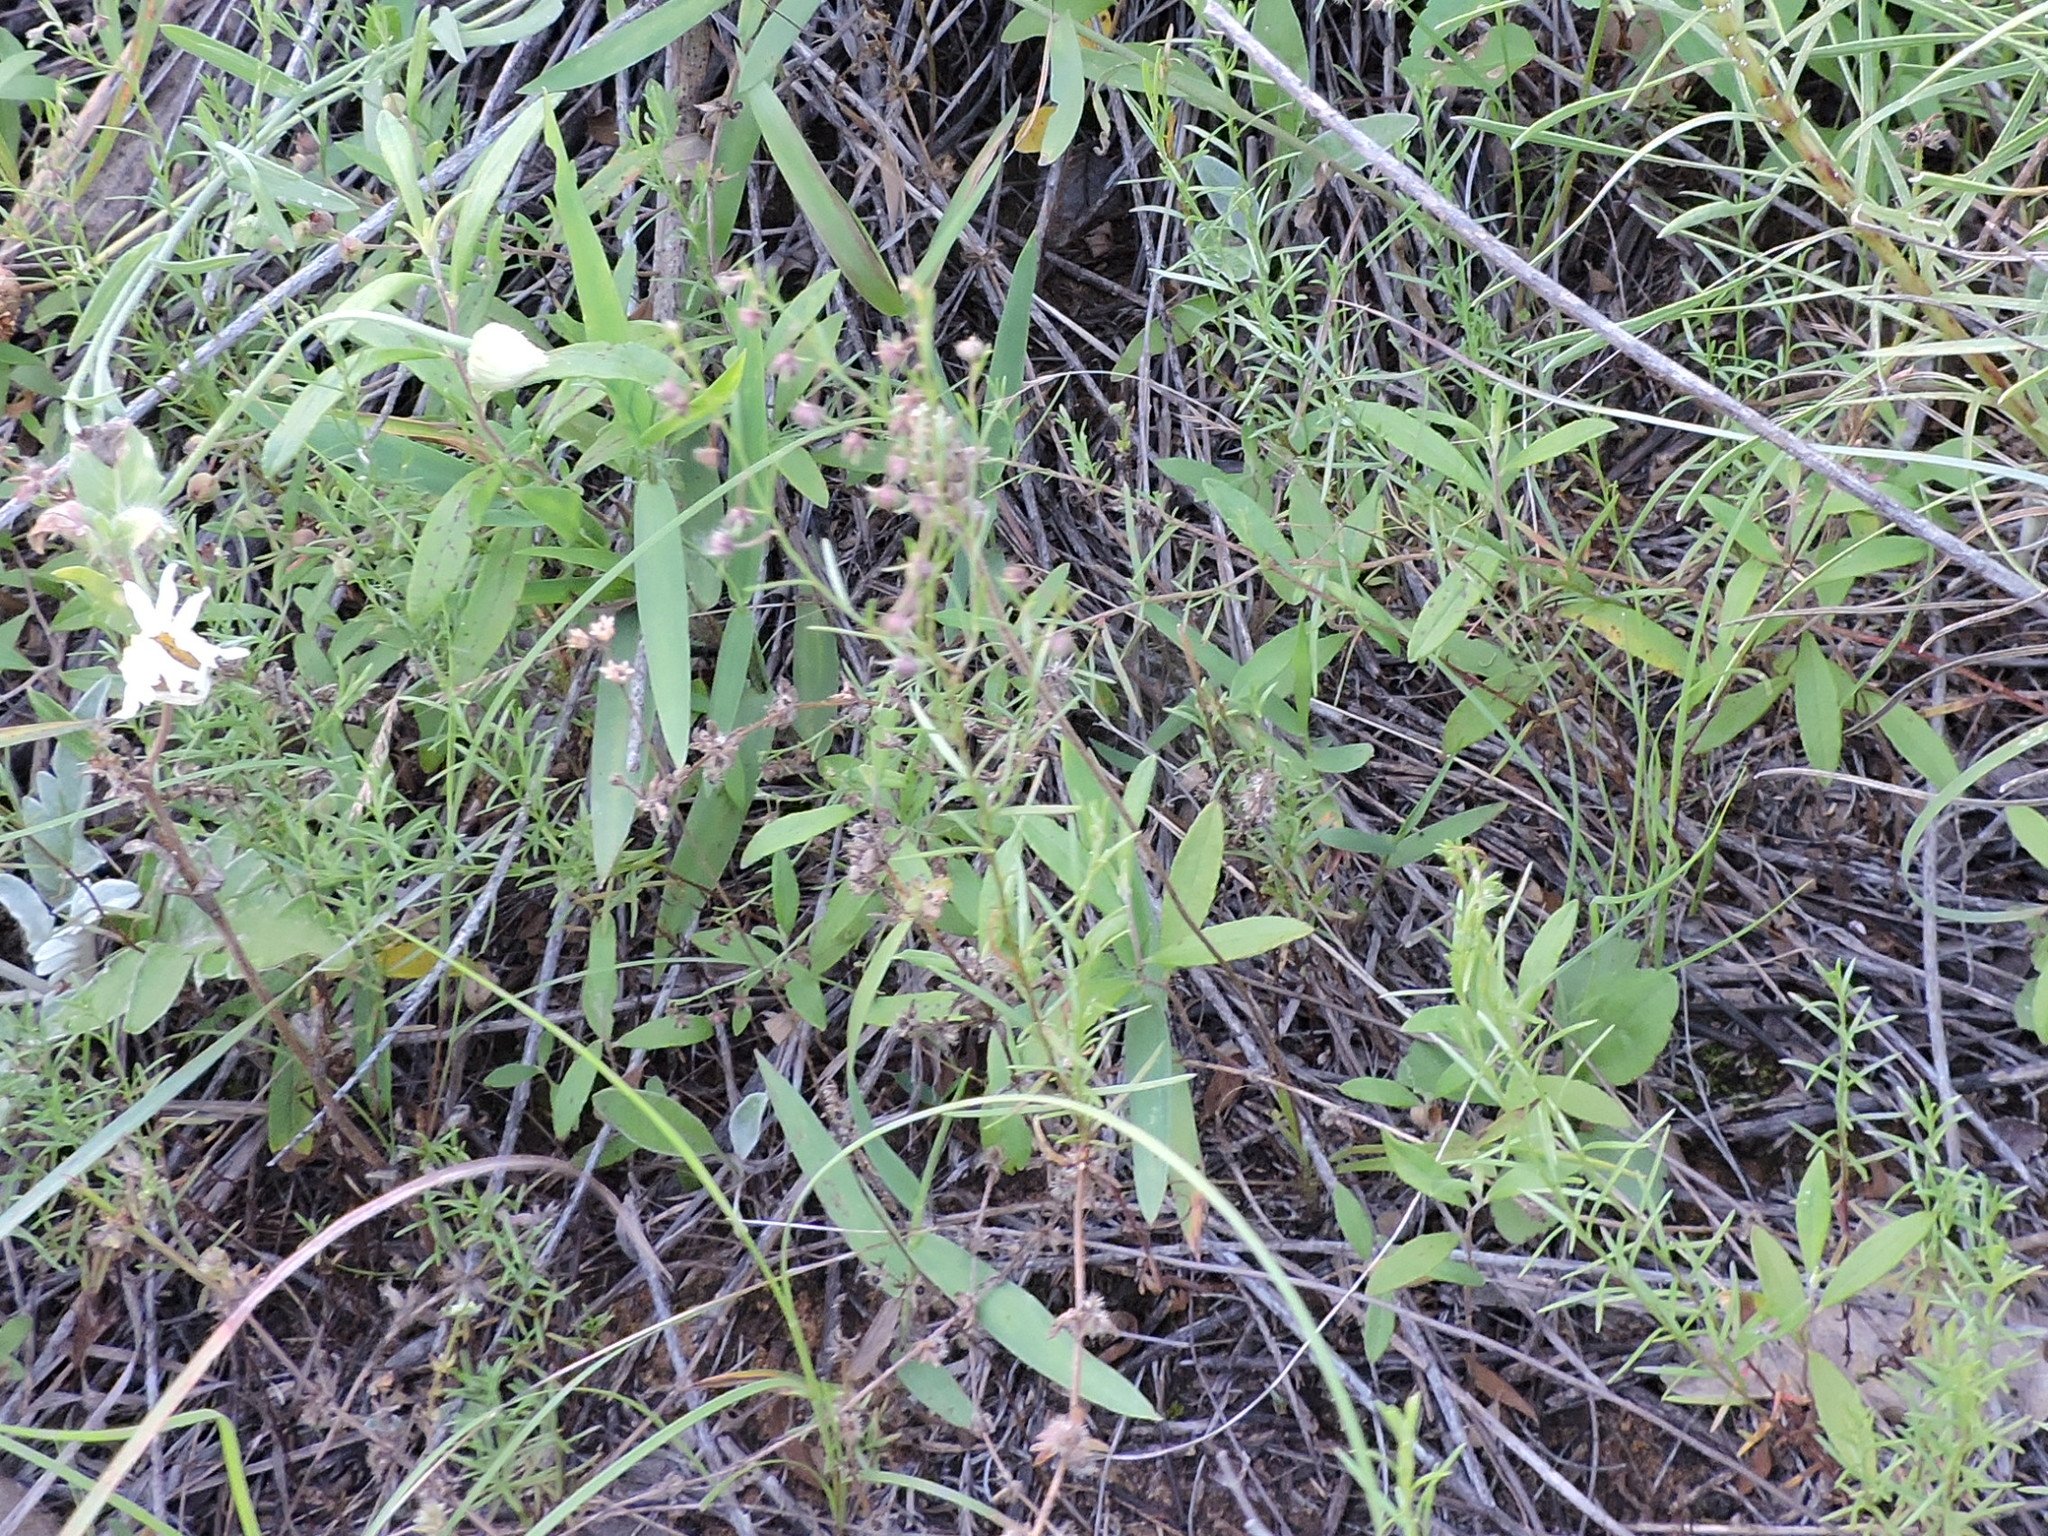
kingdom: Plantae
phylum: Tracheophyta
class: Magnoliopsida
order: Malvales
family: Cistaceae
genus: Lechea
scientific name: Lechea san-sabeana
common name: San saba pinweed
